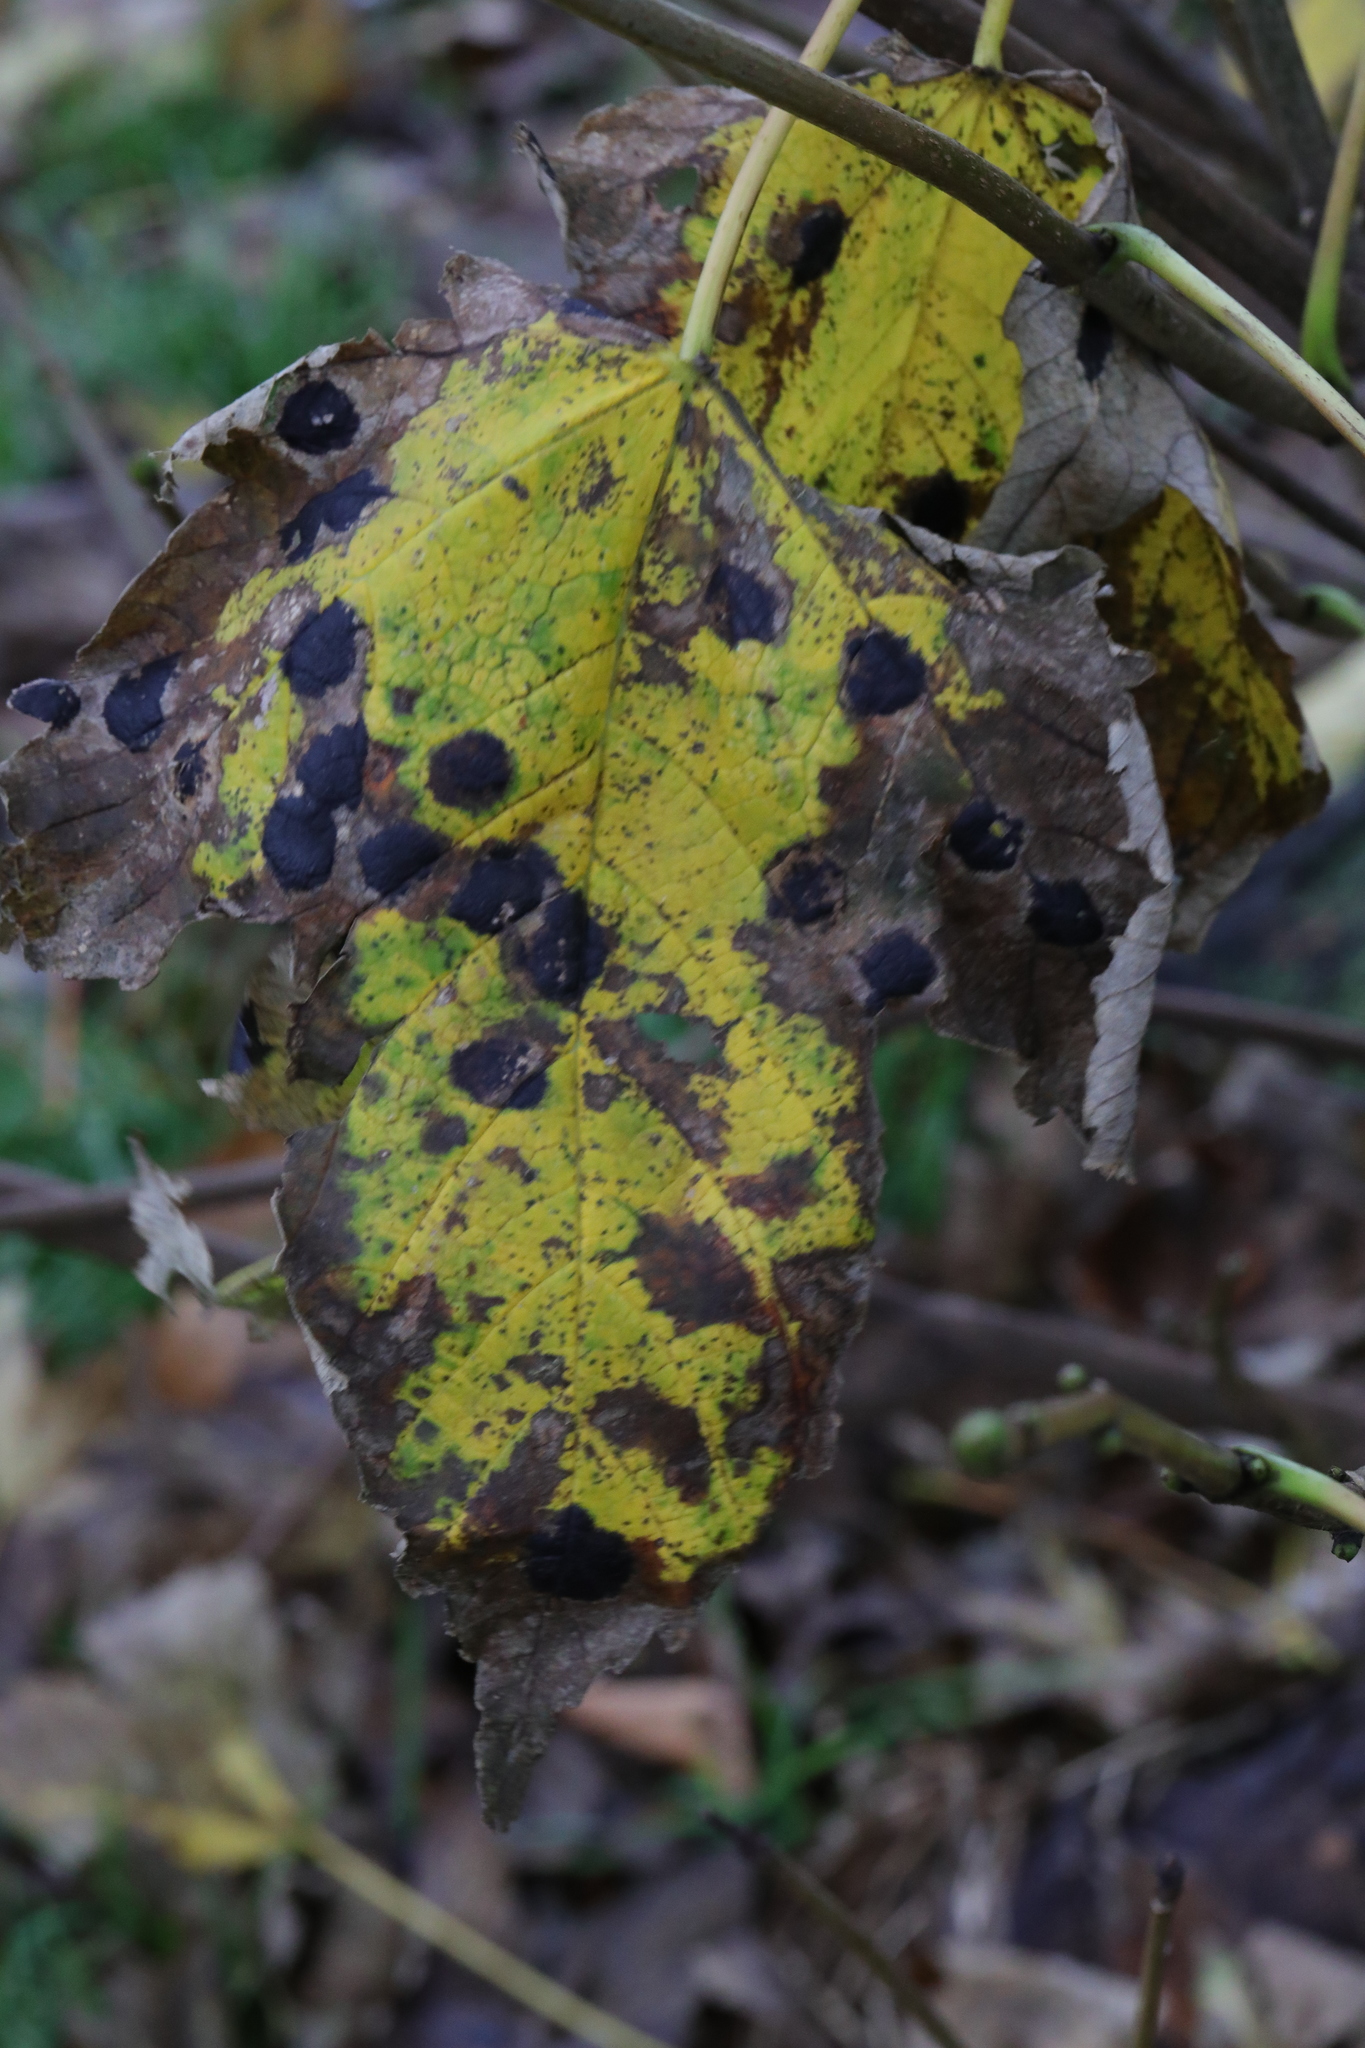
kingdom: Plantae
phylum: Tracheophyta
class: Magnoliopsida
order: Sapindales
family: Sapindaceae
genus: Acer
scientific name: Acer pseudoplatanus
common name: Sycamore
